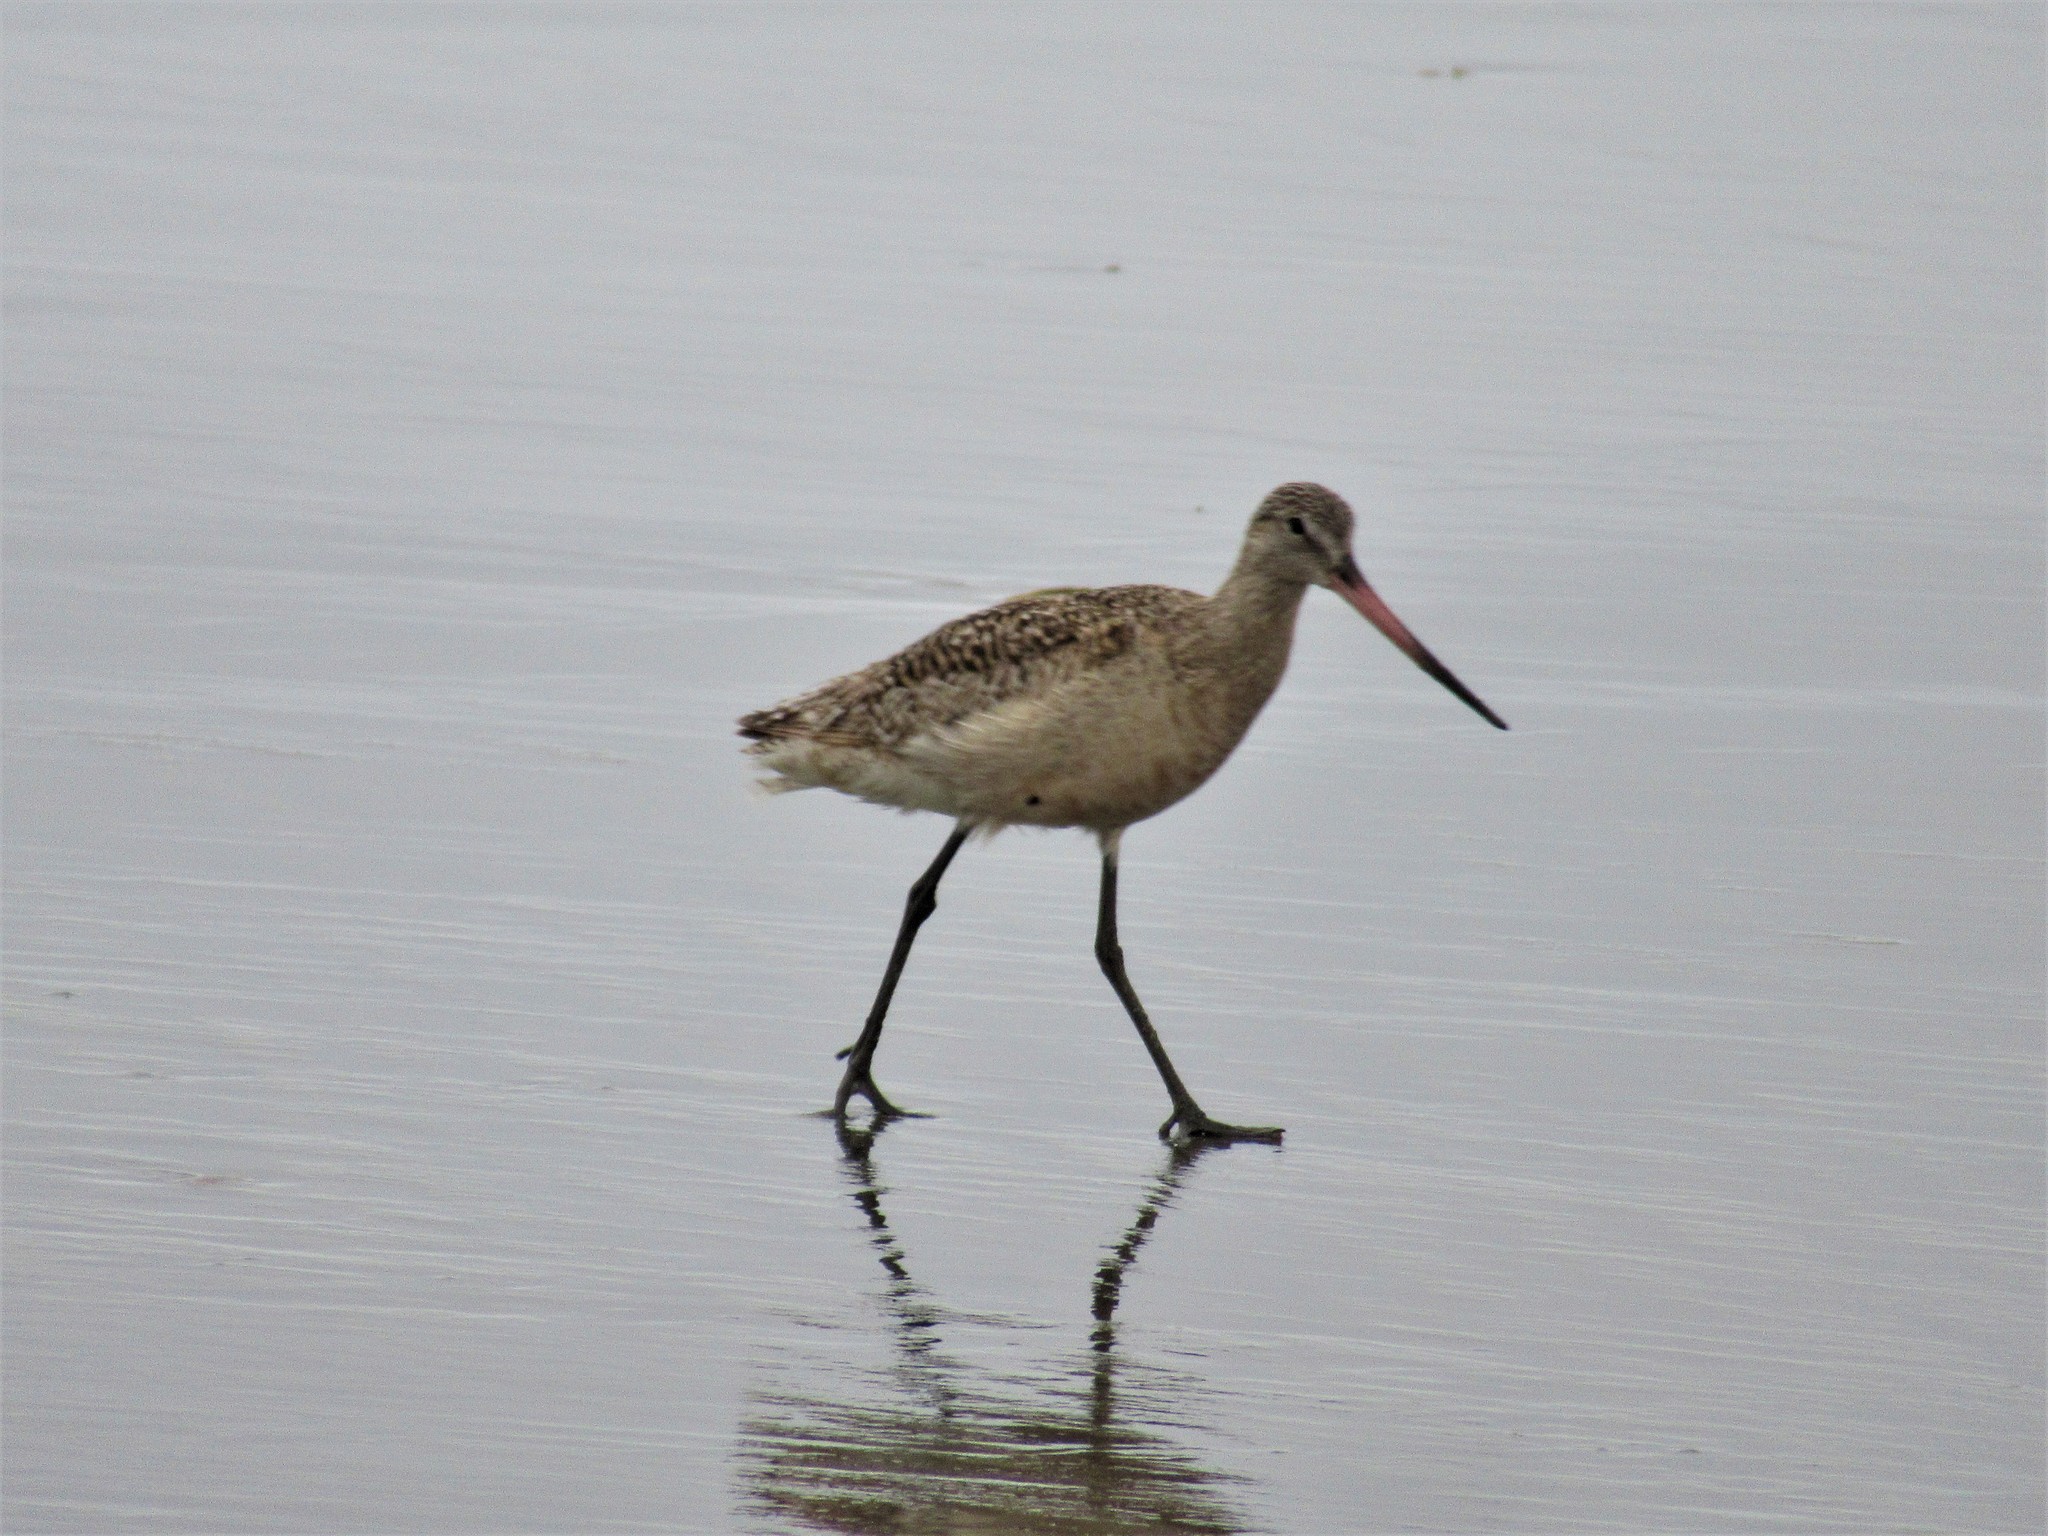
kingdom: Animalia
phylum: Chordata
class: Aves
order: Charadriiformes
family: Scolopacidae
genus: Limosa
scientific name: Limosa fedoa
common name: Marbled godwit
